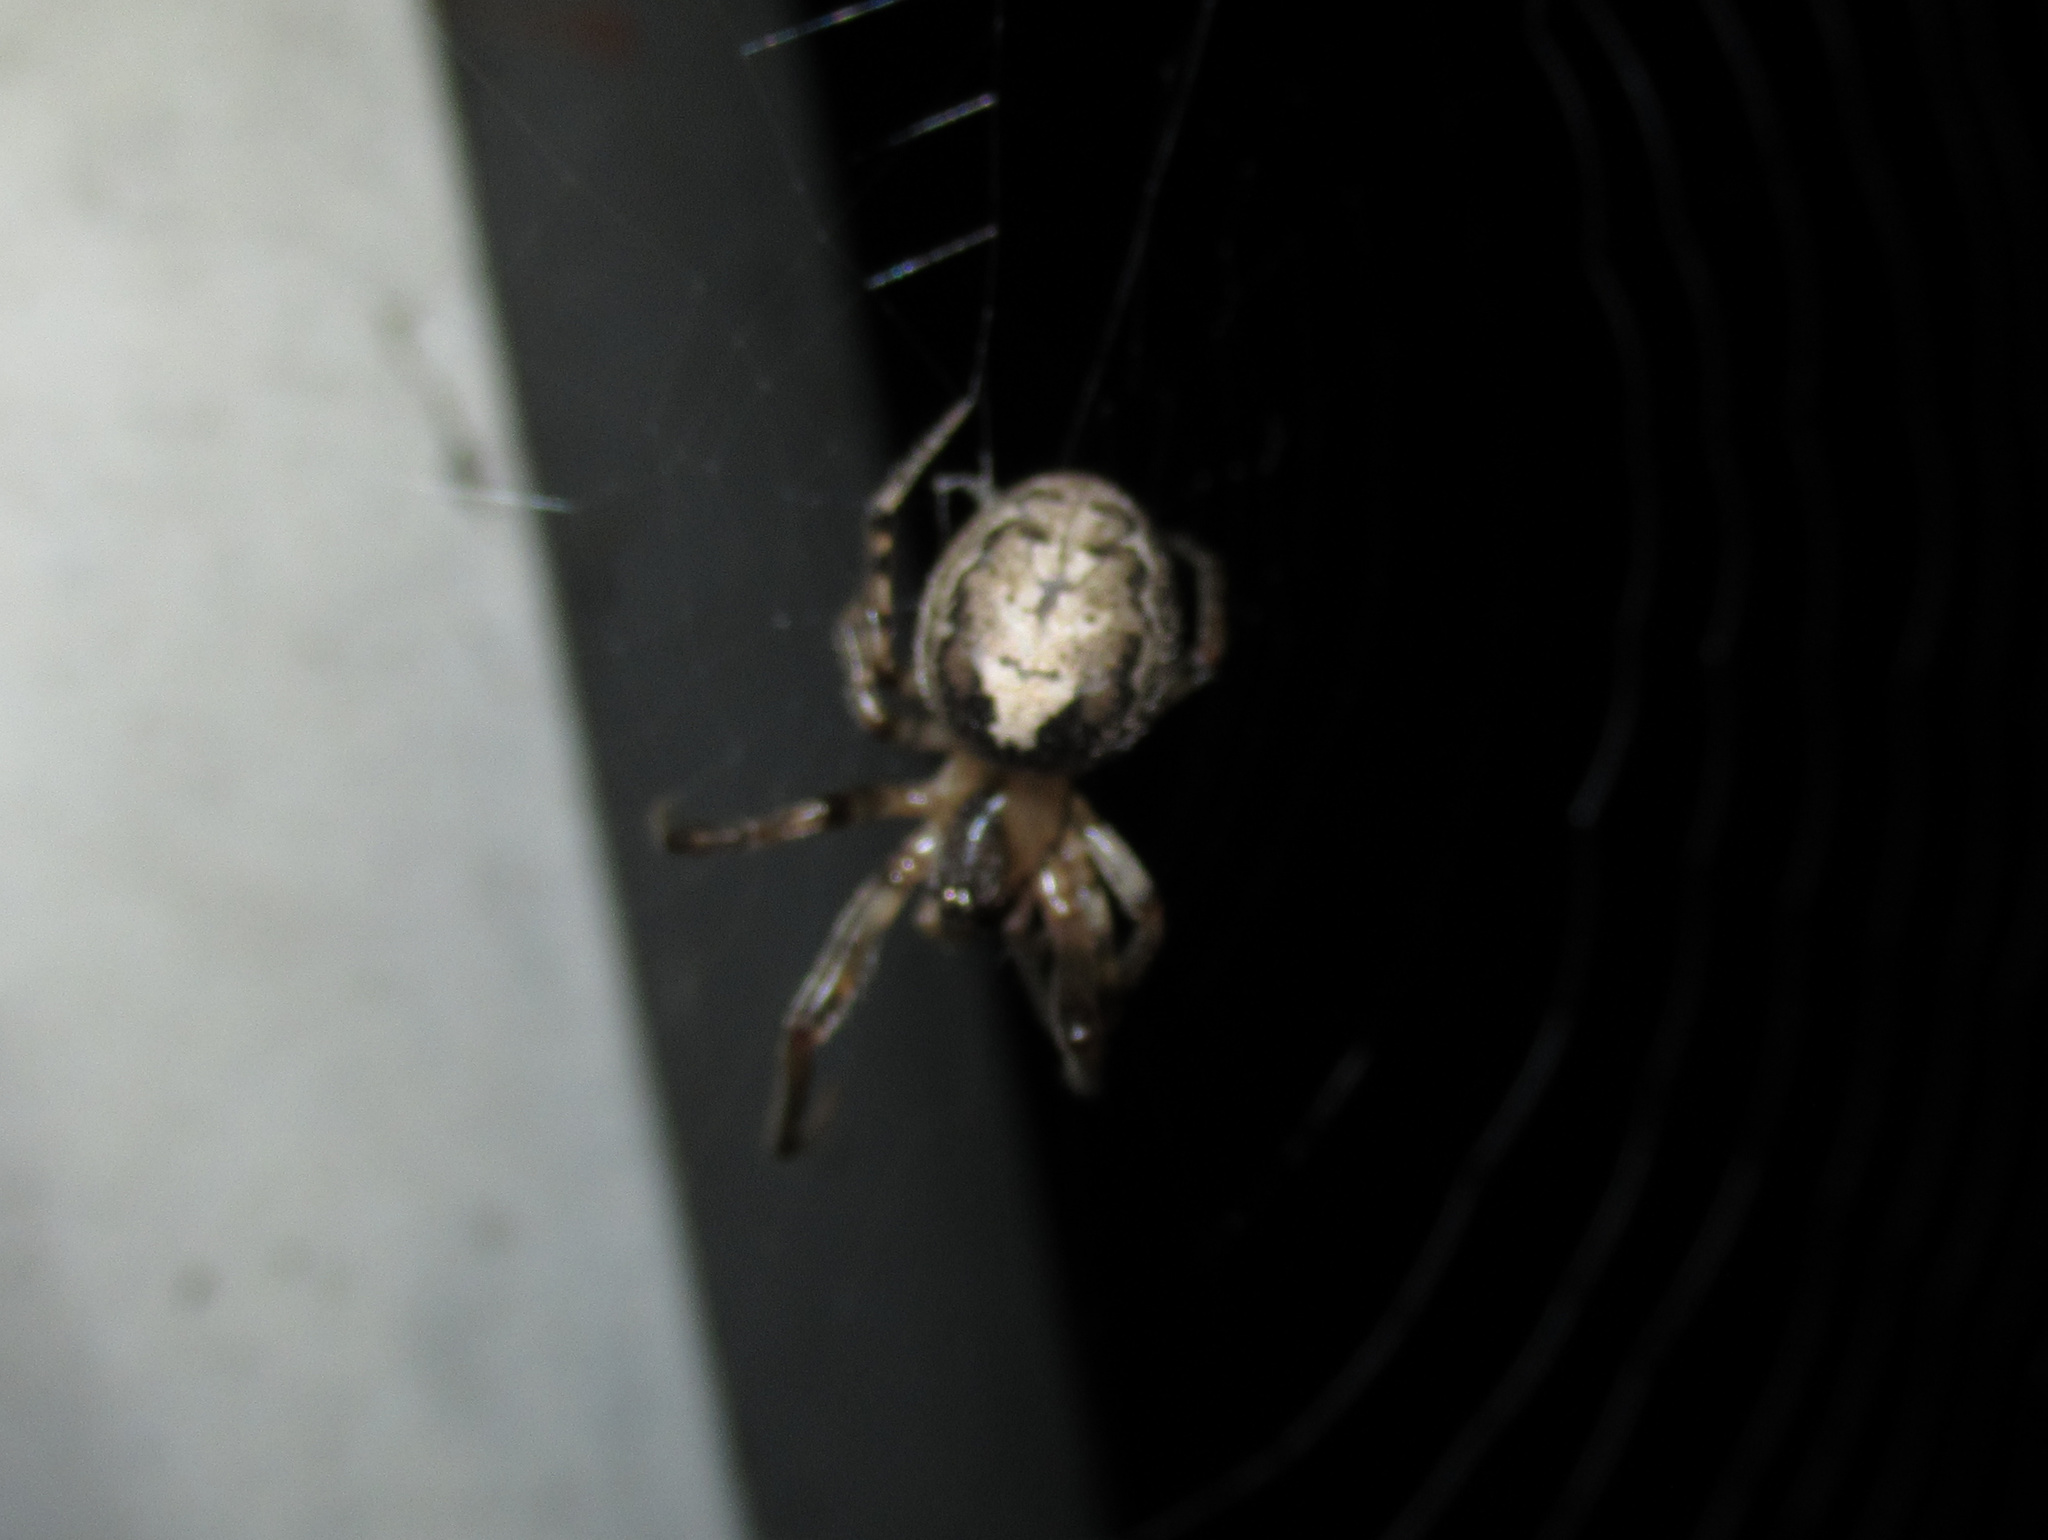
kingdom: Animalia
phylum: Arthropoda
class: Arachnida
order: Araneae
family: Araneidae
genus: Zygiella
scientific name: Zygiella x-notata
